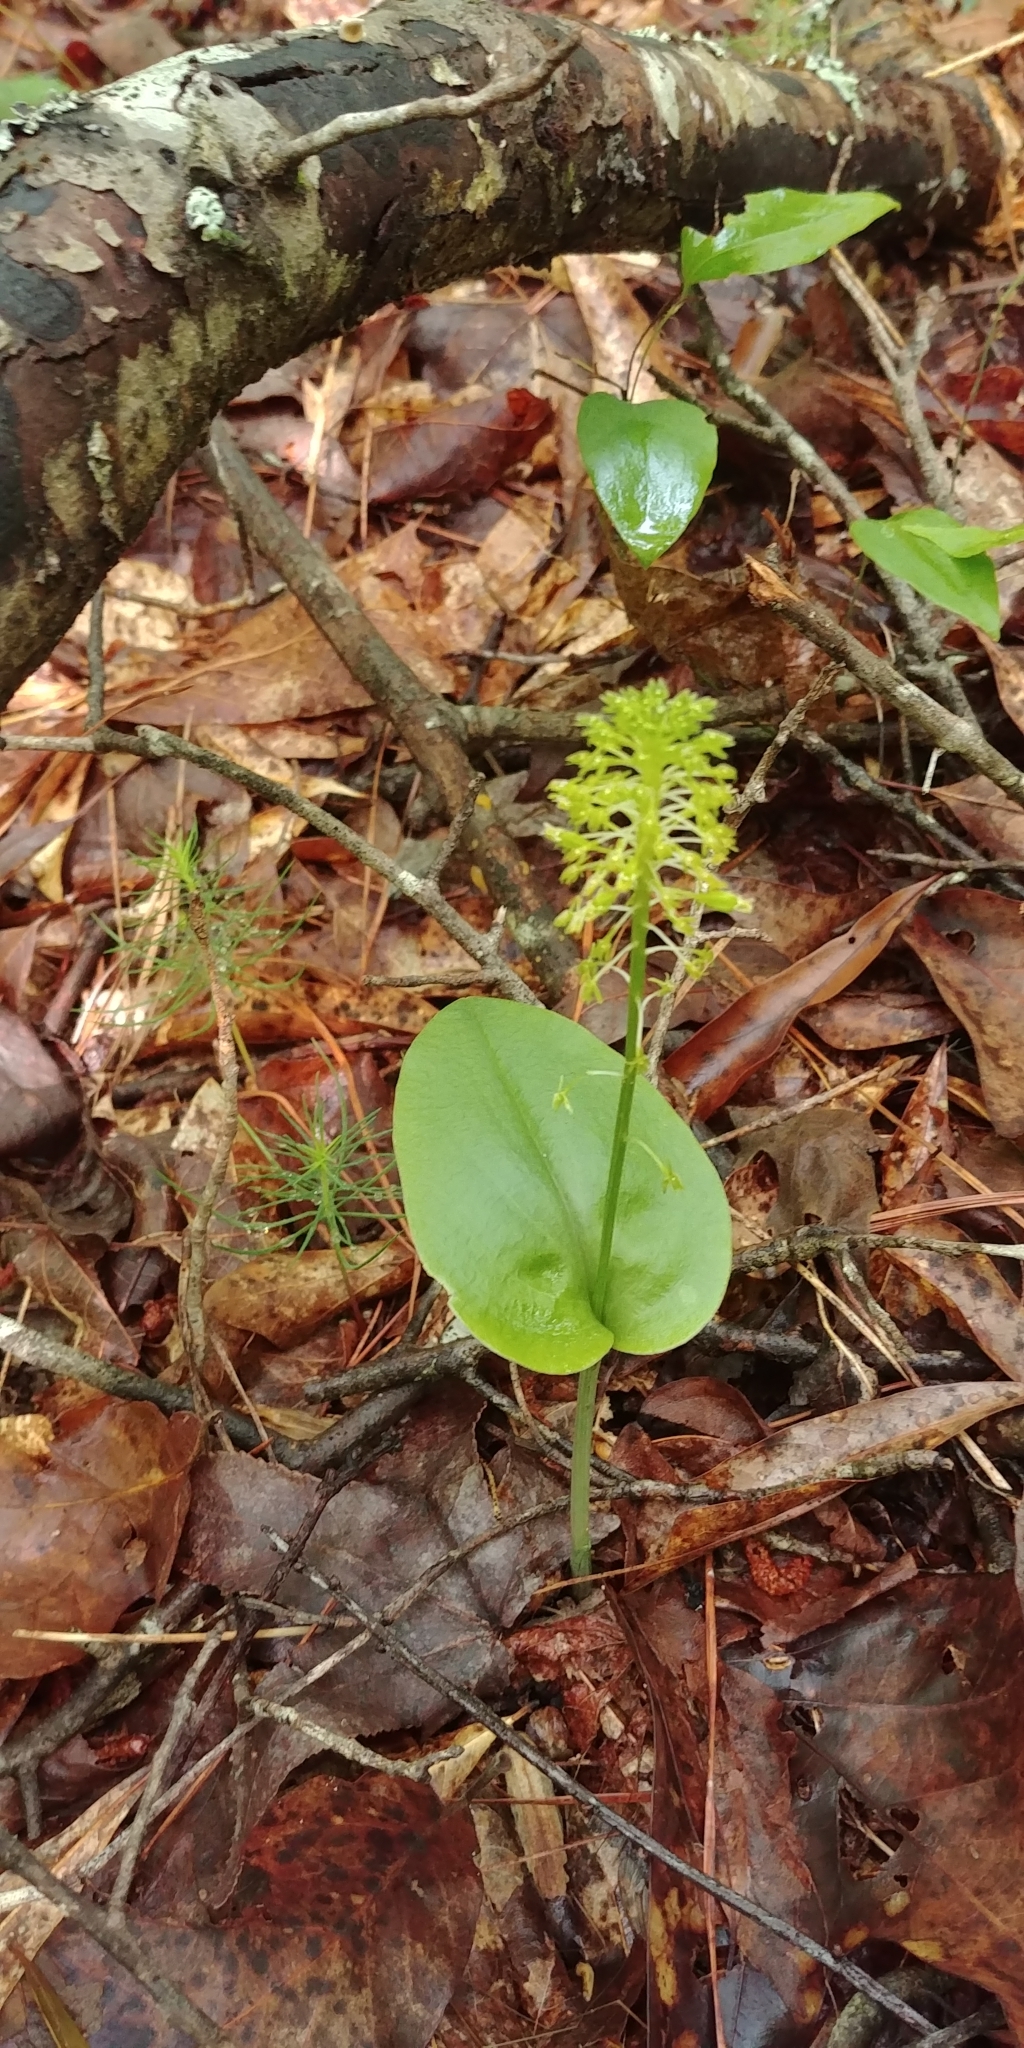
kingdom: Plantae
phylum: Tracheophyta
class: Liliopsida
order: Asparagales
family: Orchidaceae
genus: Malaxis
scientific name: Malaxis unifolia
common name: Green adder's-mouth
